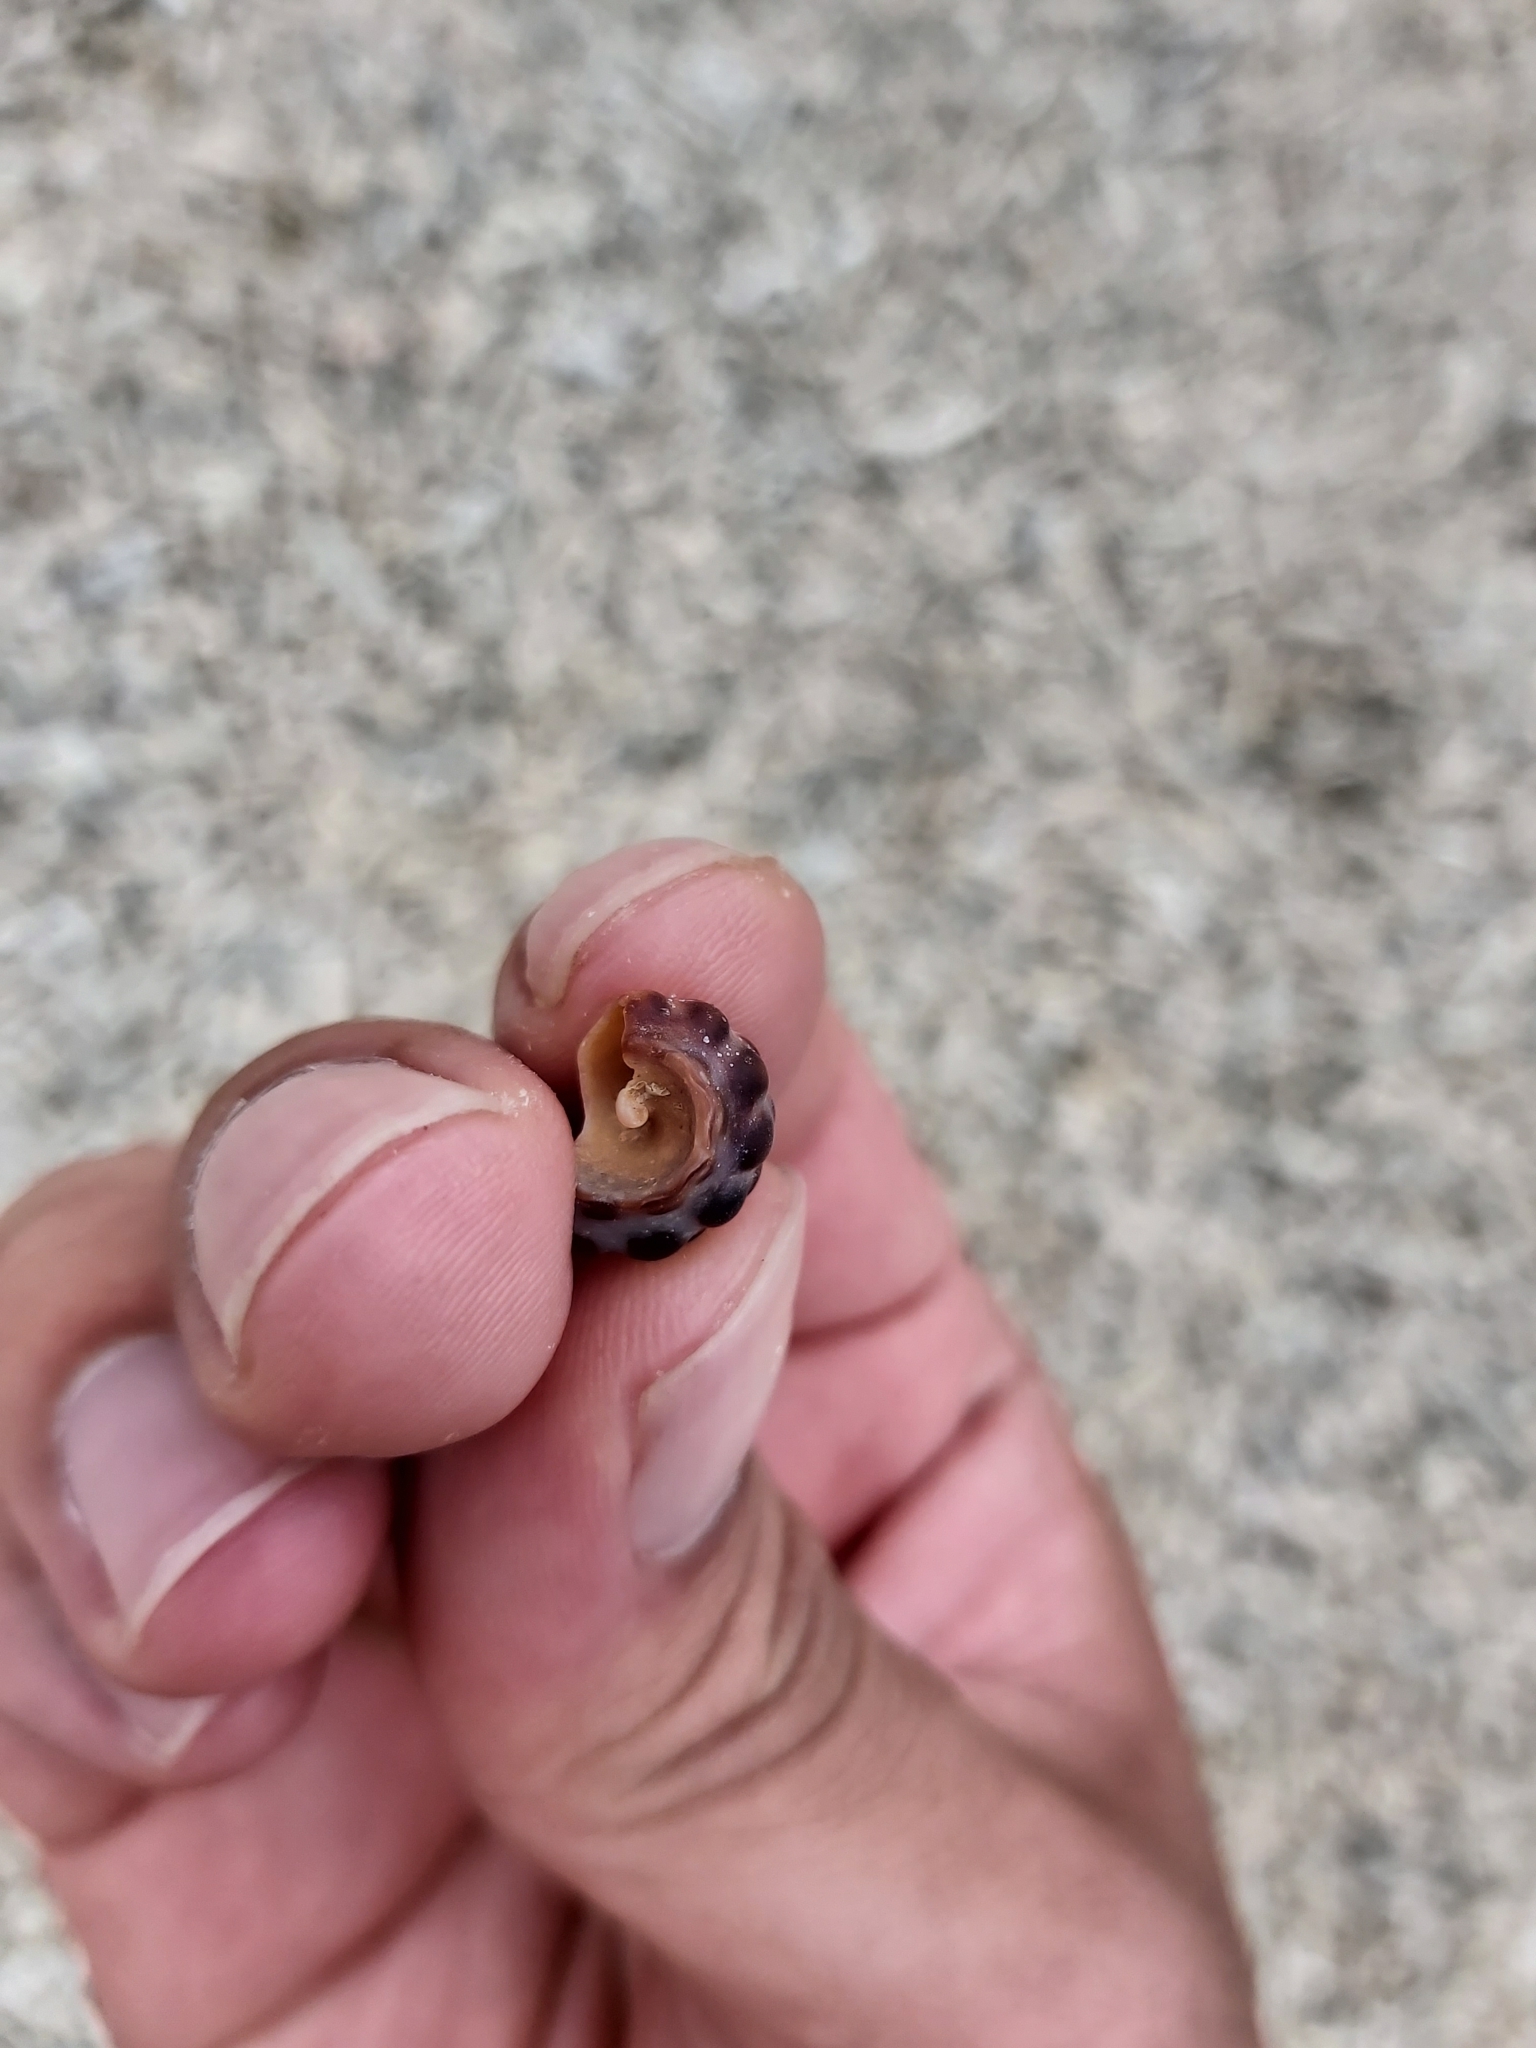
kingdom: Animalia
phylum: Mollusca
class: Gastropoda
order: Neogastropoda
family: Muricidae
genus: Tenguella
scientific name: Tenguella marginalba
